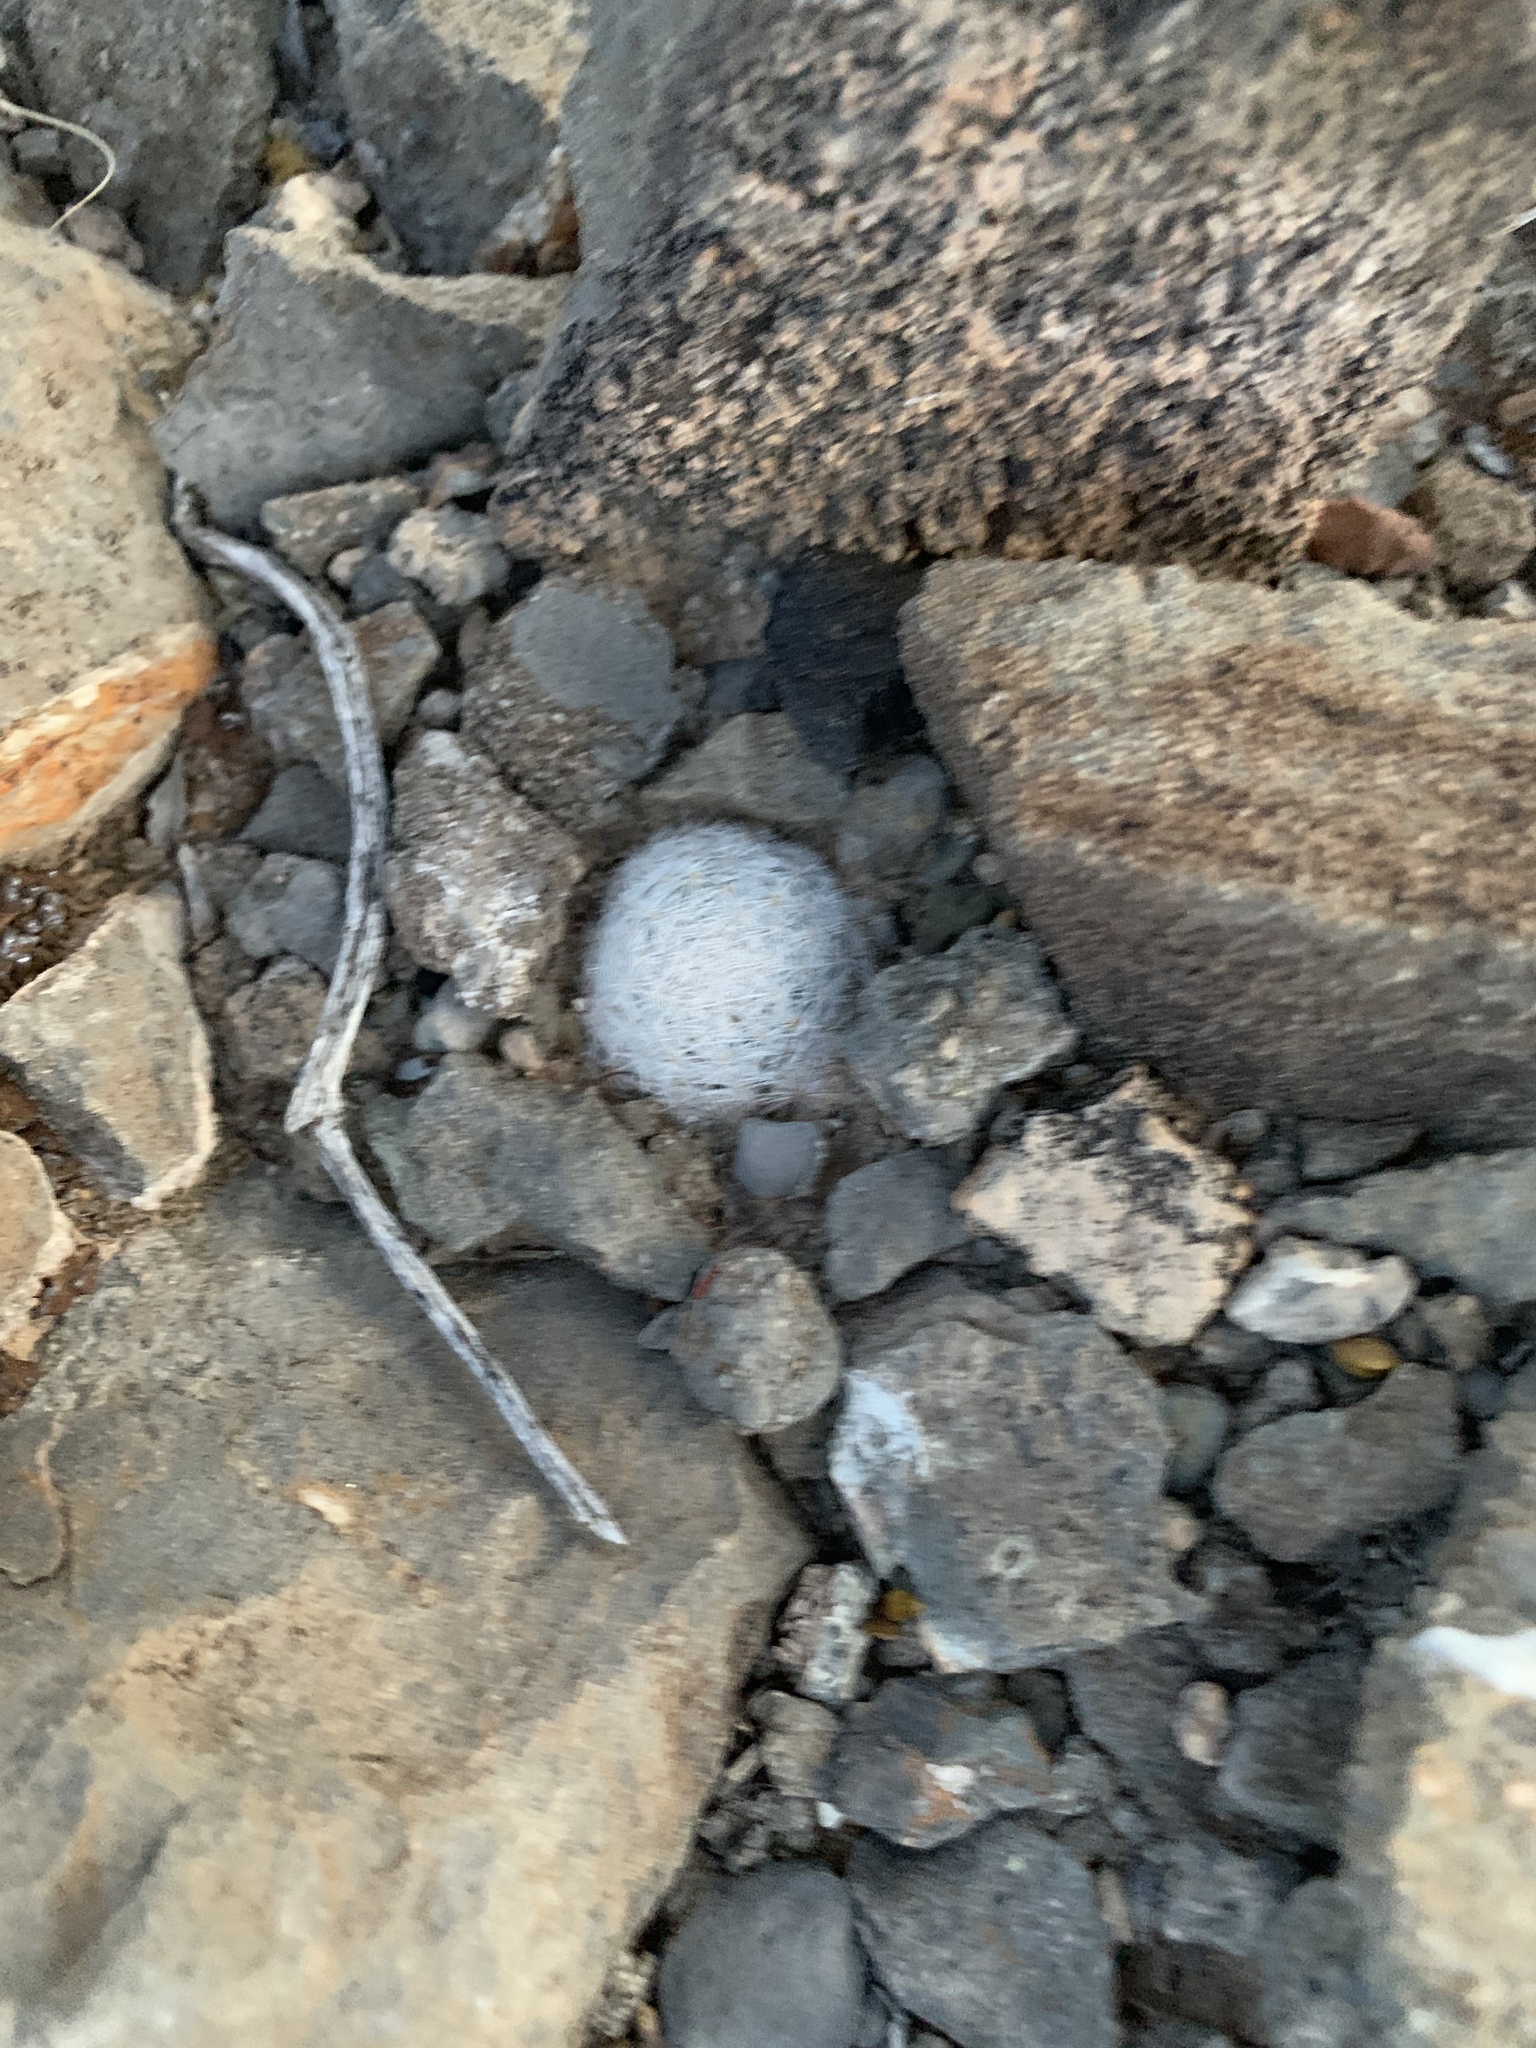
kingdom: Plantae
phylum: Tracheophyta
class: Magnoliopsida
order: Caryophyllales
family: Cactaceae
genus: Mammillaria
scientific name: Mammillaria lasiacantha
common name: Lace-spine nipple cactus
